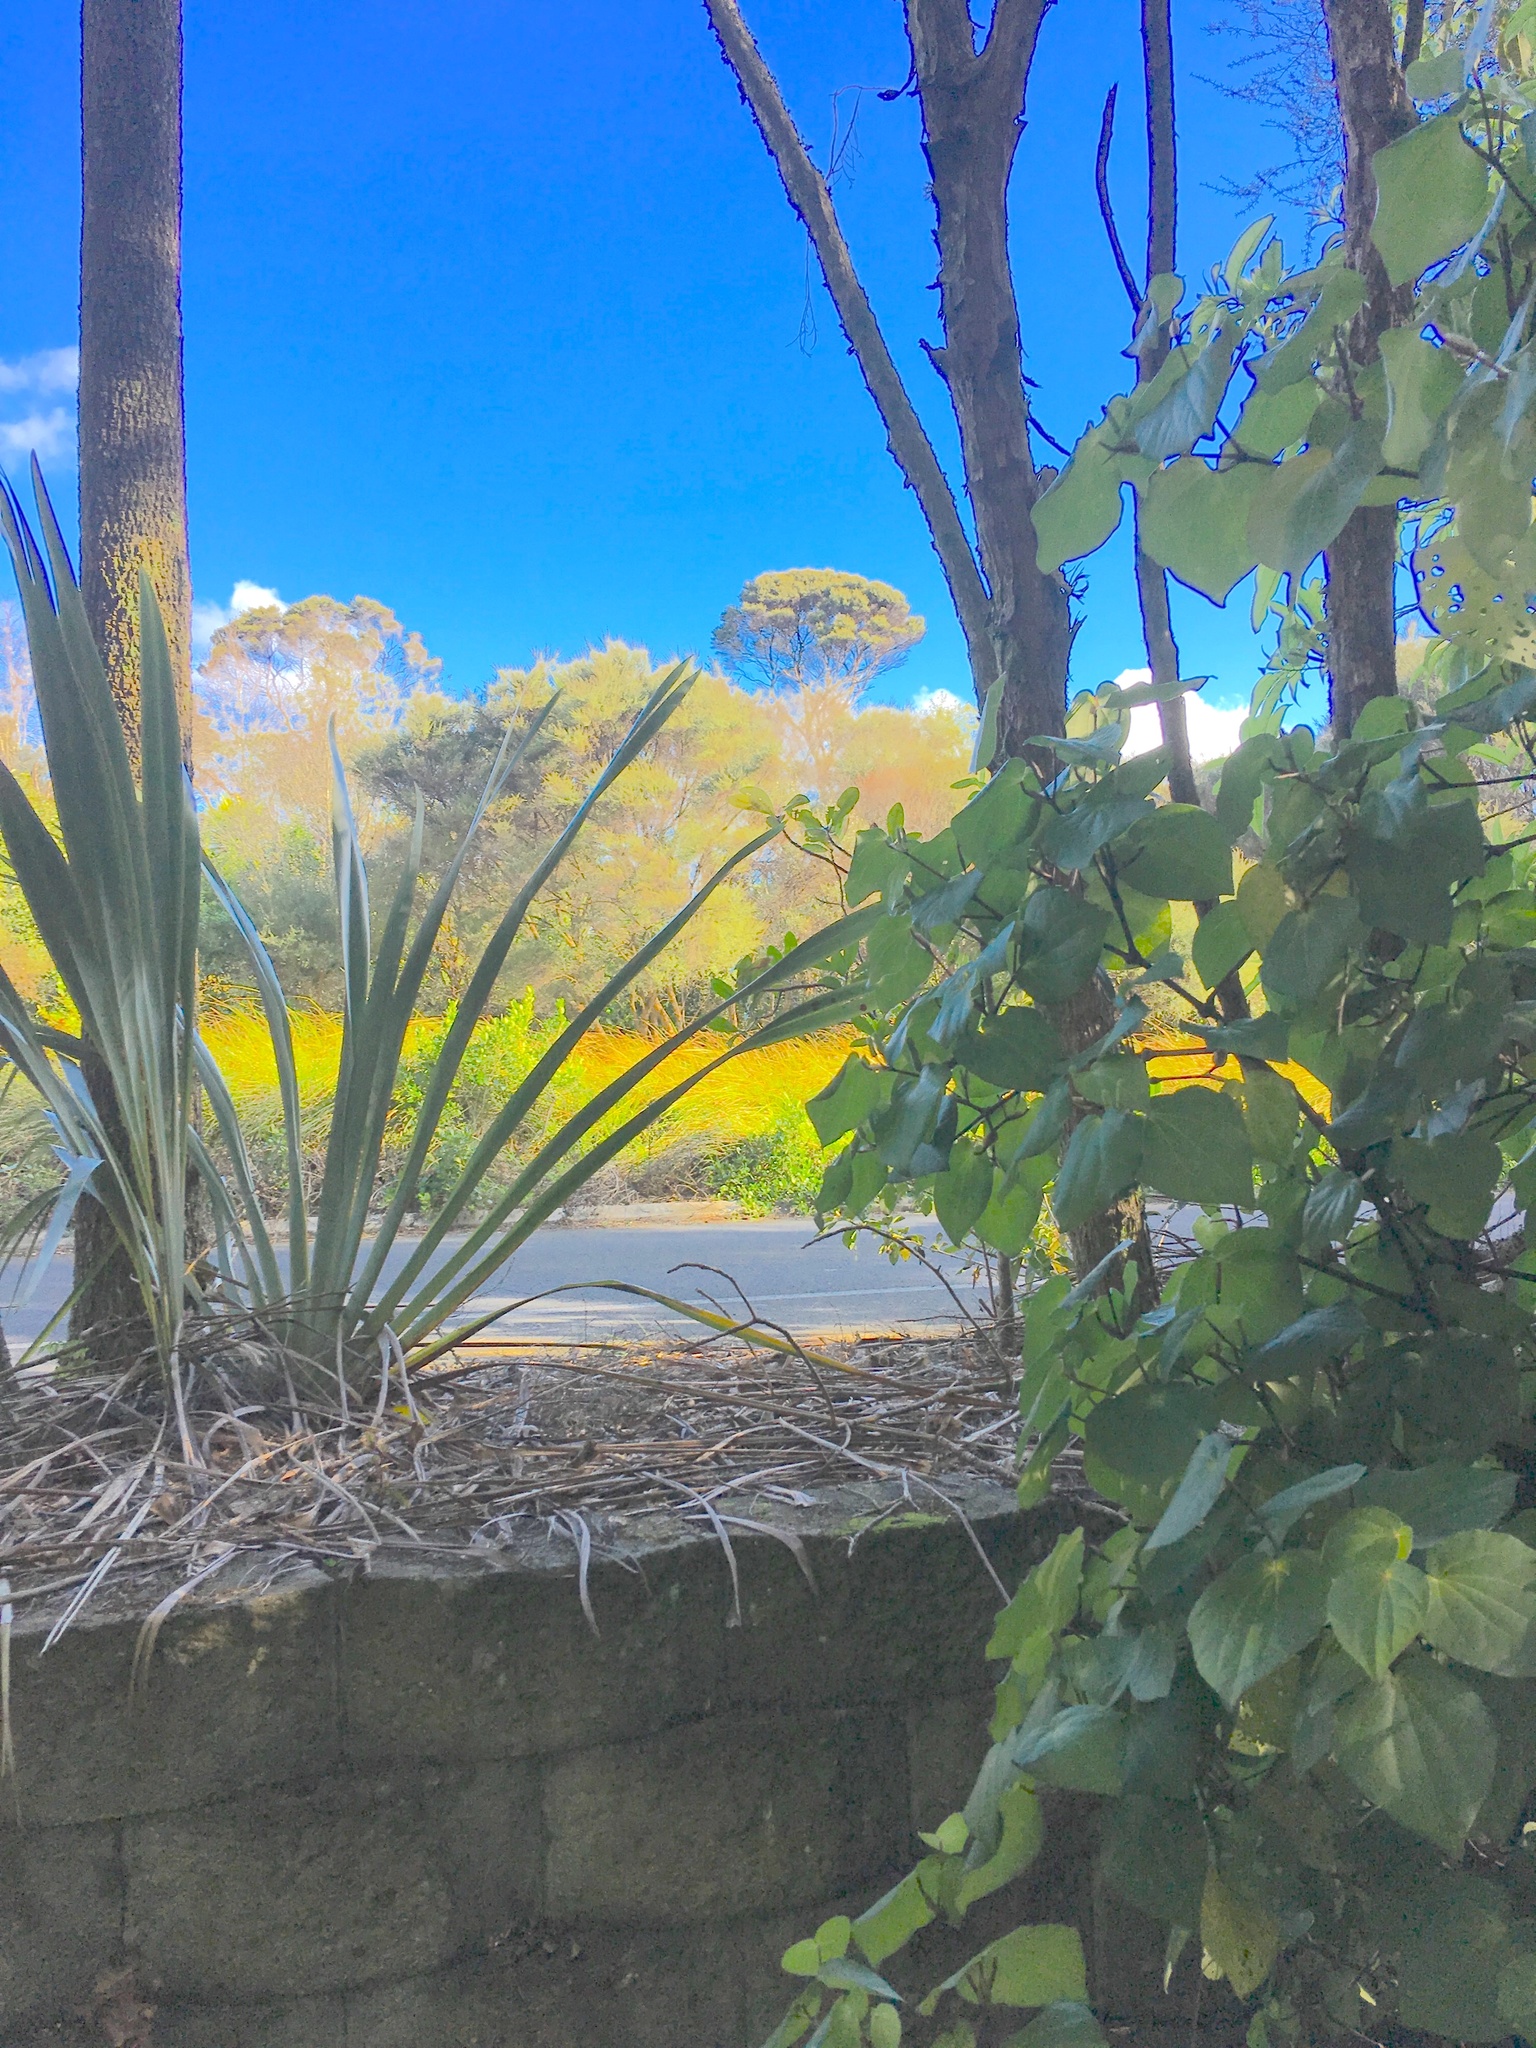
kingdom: Plantae
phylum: Tracheophyta
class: Magnoliopsida
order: Piperales
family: Piperaceae
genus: Macropiper
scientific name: Macropiper excelsum
